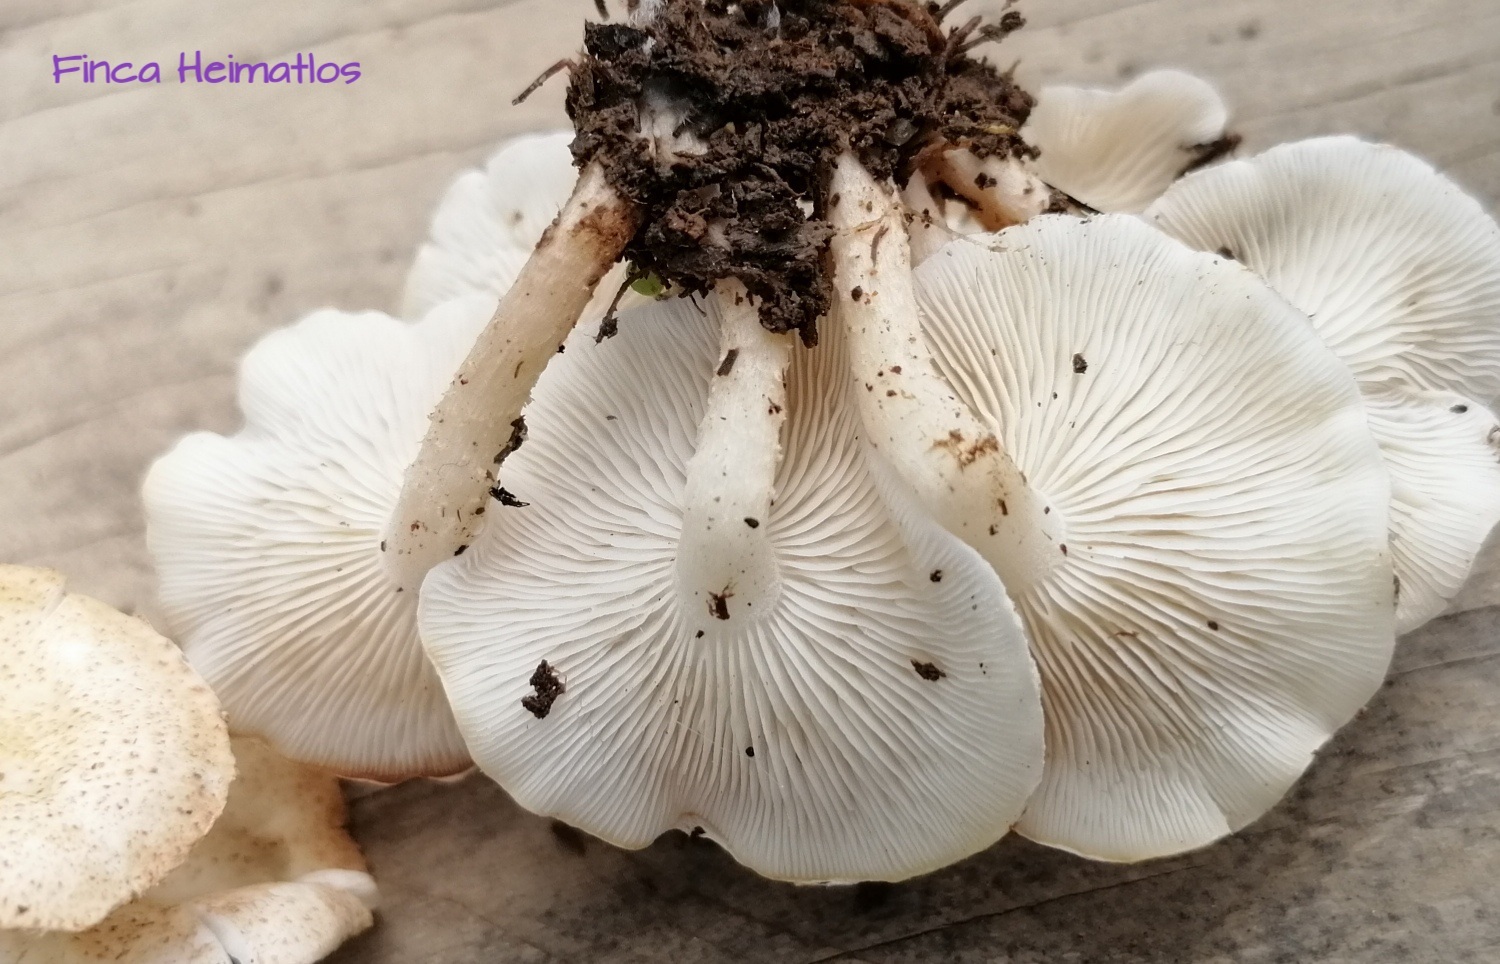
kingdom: Fungi
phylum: Basidiomycota
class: Agaricomycetes
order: Agaricales
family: Agaricaceae
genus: Ripartitella
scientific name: Ripartitella brasiliensis
